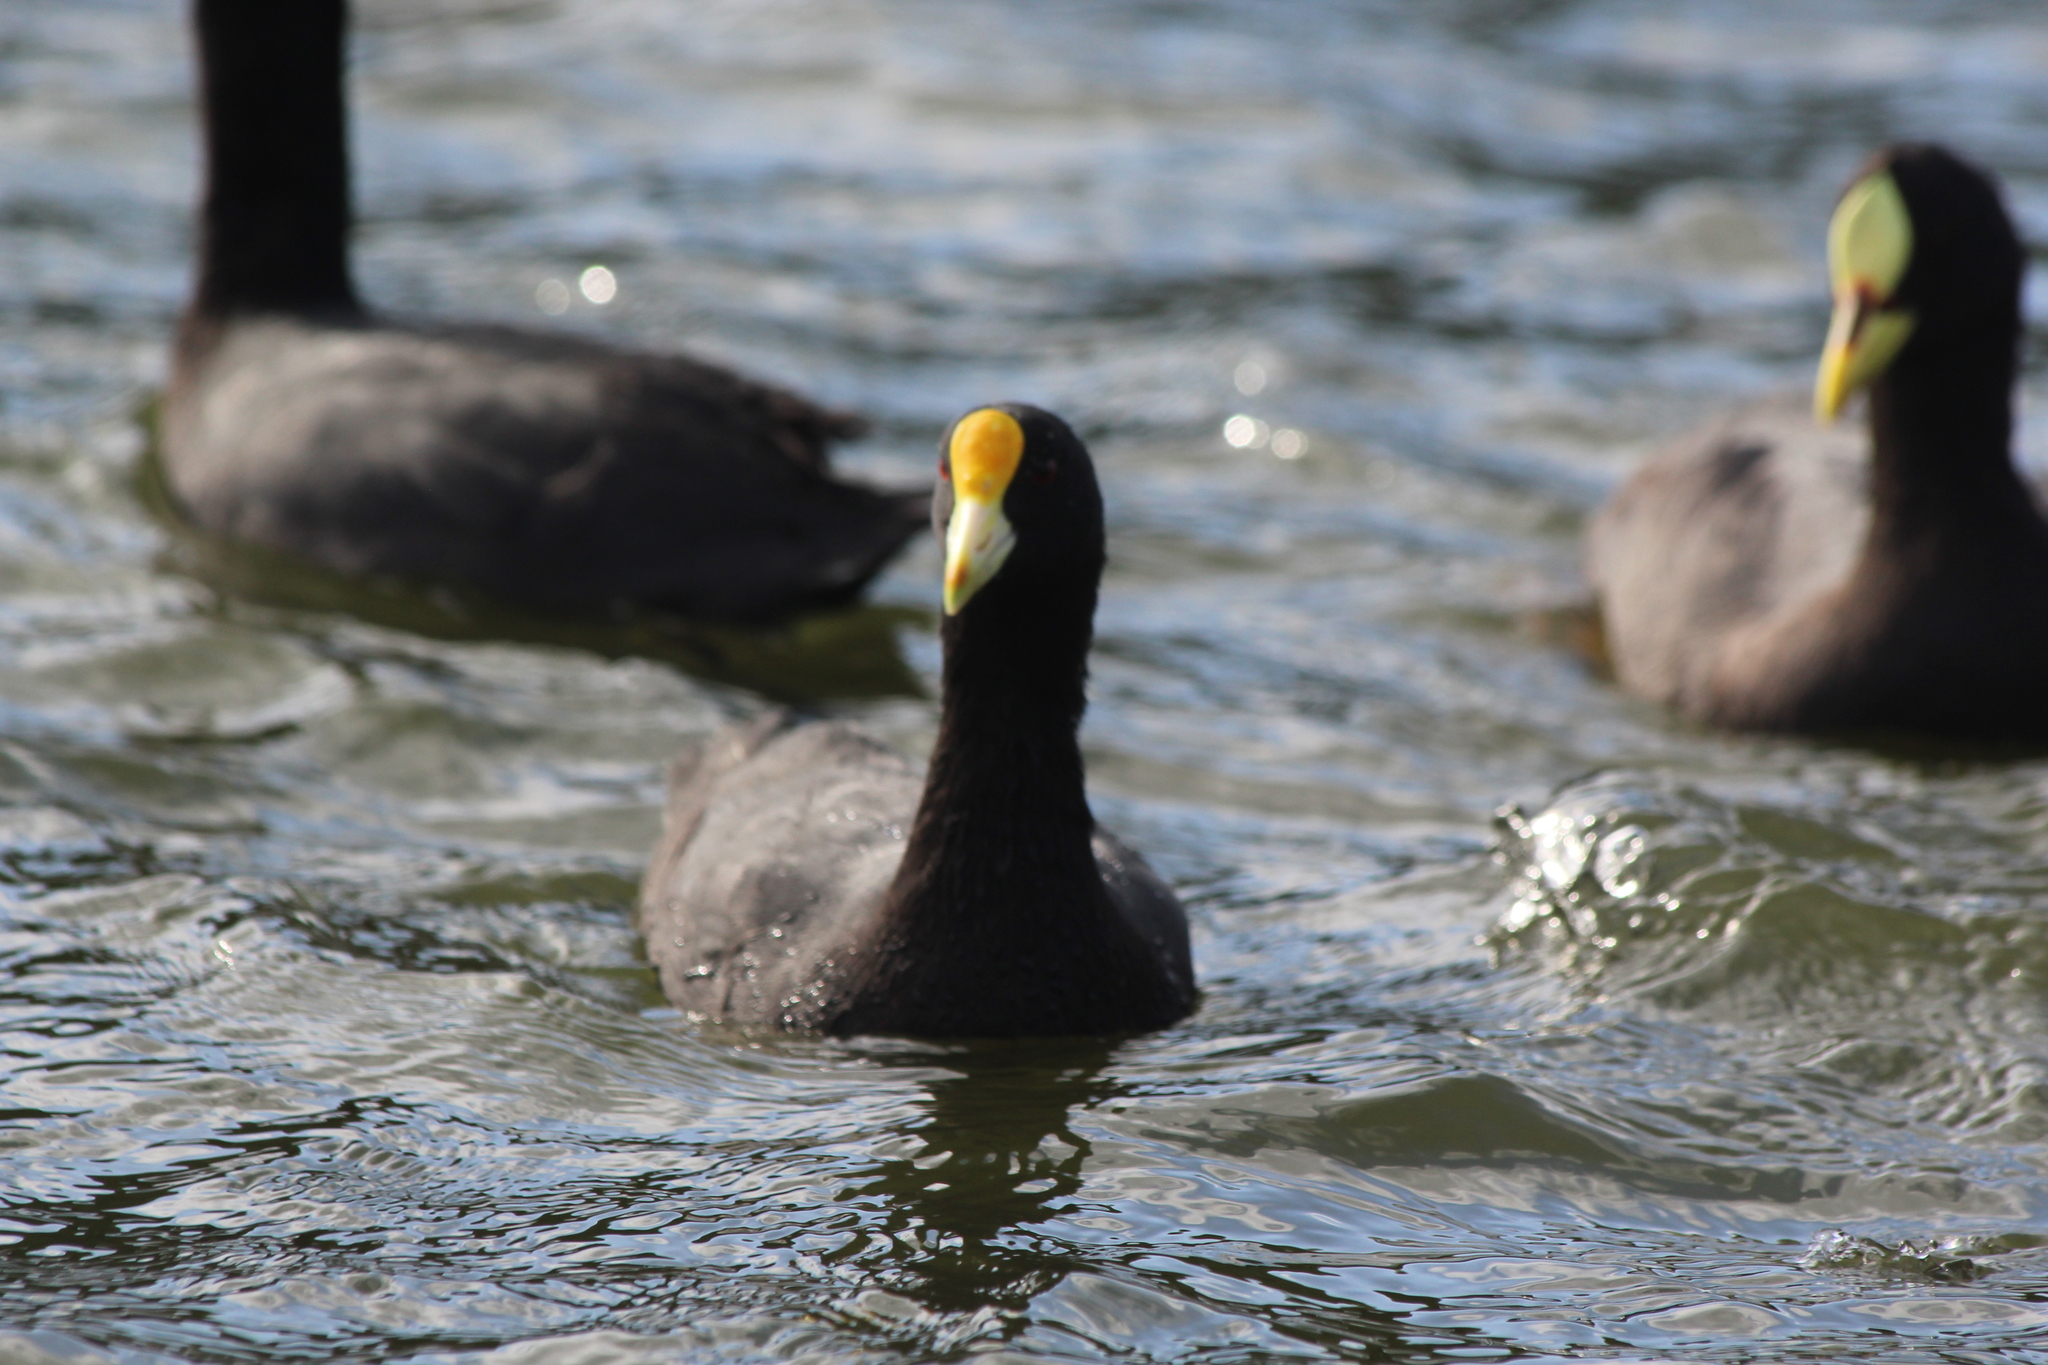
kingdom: Animalia
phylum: Chordata
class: Aves
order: Gruiformes
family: Rallidae
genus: Fulica
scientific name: Fulica leucoptera
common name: White-winged coot
